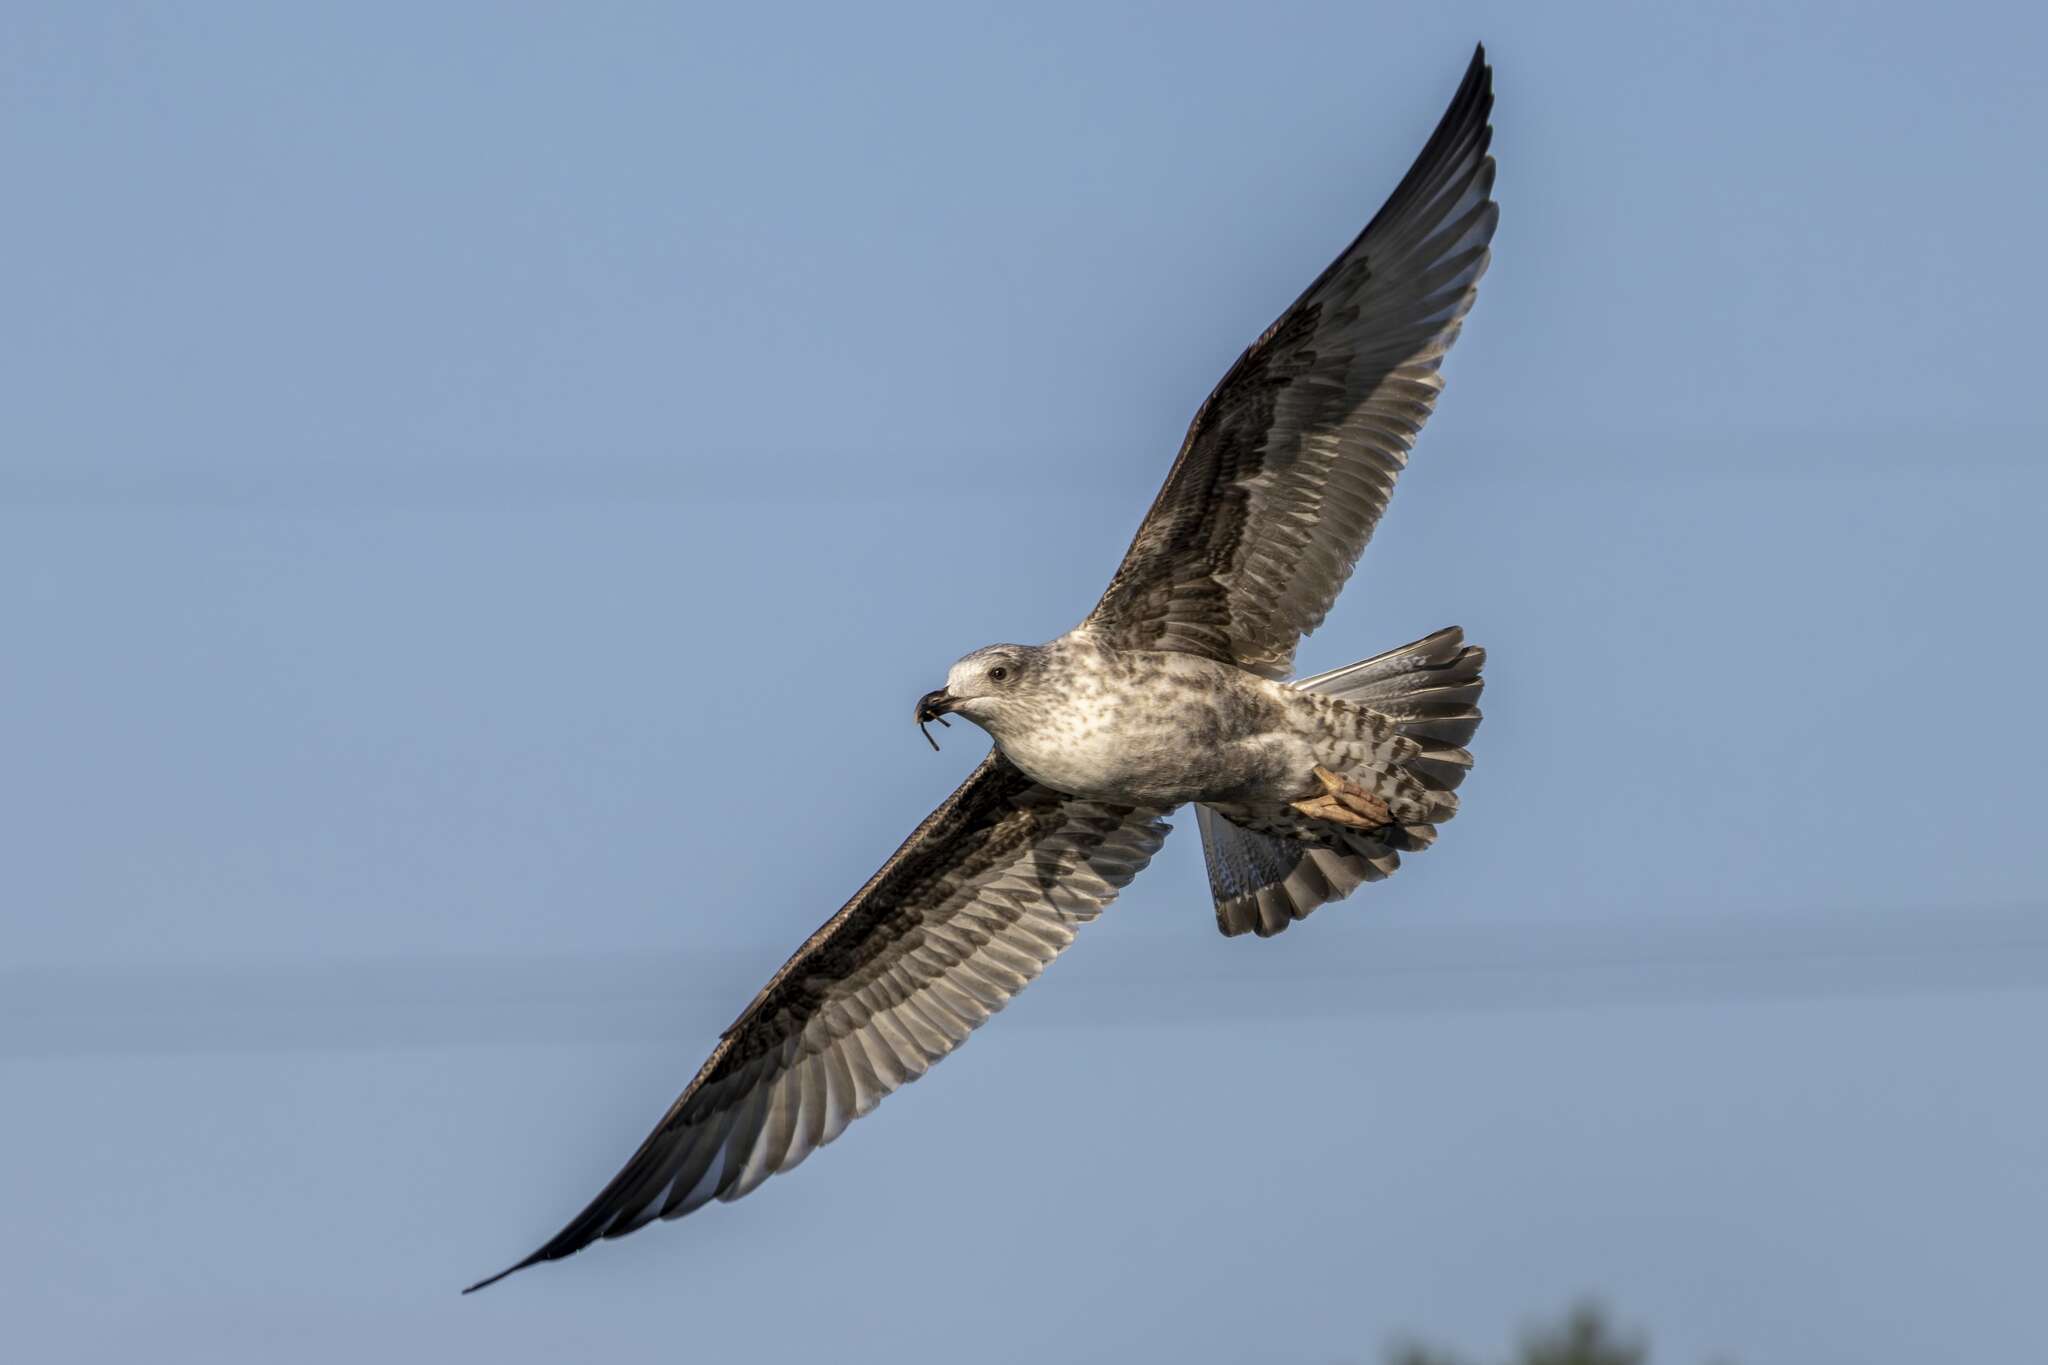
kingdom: Animalia
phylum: Chordata
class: Aves
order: Charadriiformes
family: Laridae
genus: Larus
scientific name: Larus argentatus
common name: Herring gull
